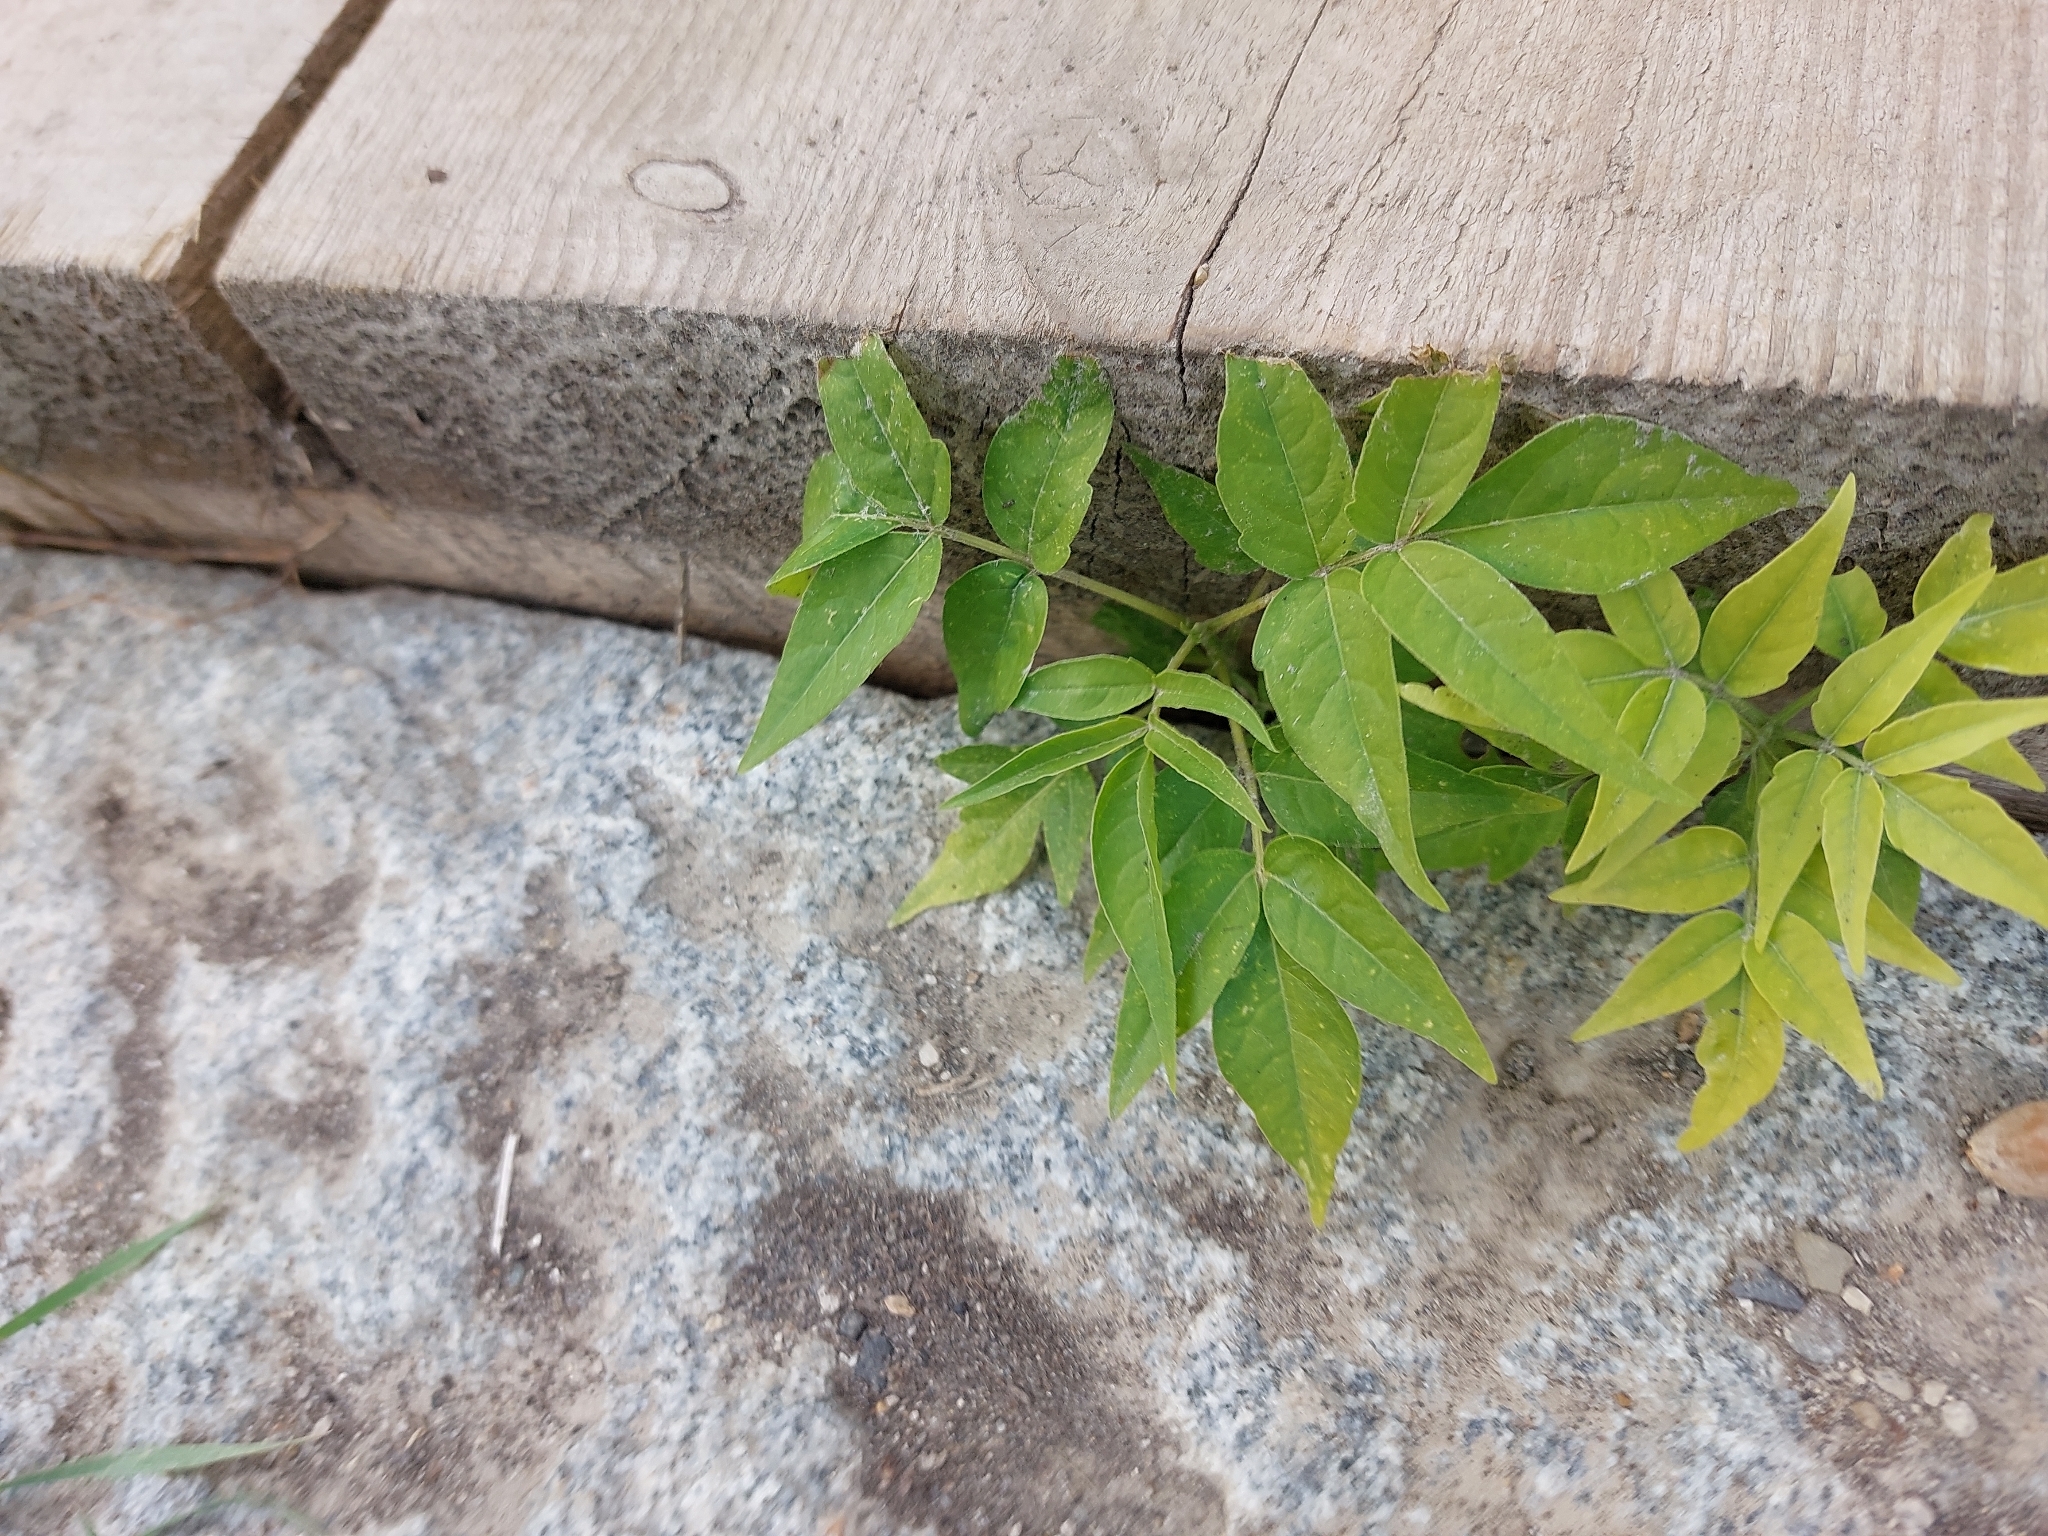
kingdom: Plantae
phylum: Tracheophyta
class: Magnoliopsida
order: Sapindales
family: Simaroubaceae
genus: Ailanthus
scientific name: Ailanthus altissima
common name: Tree-of-heaven
